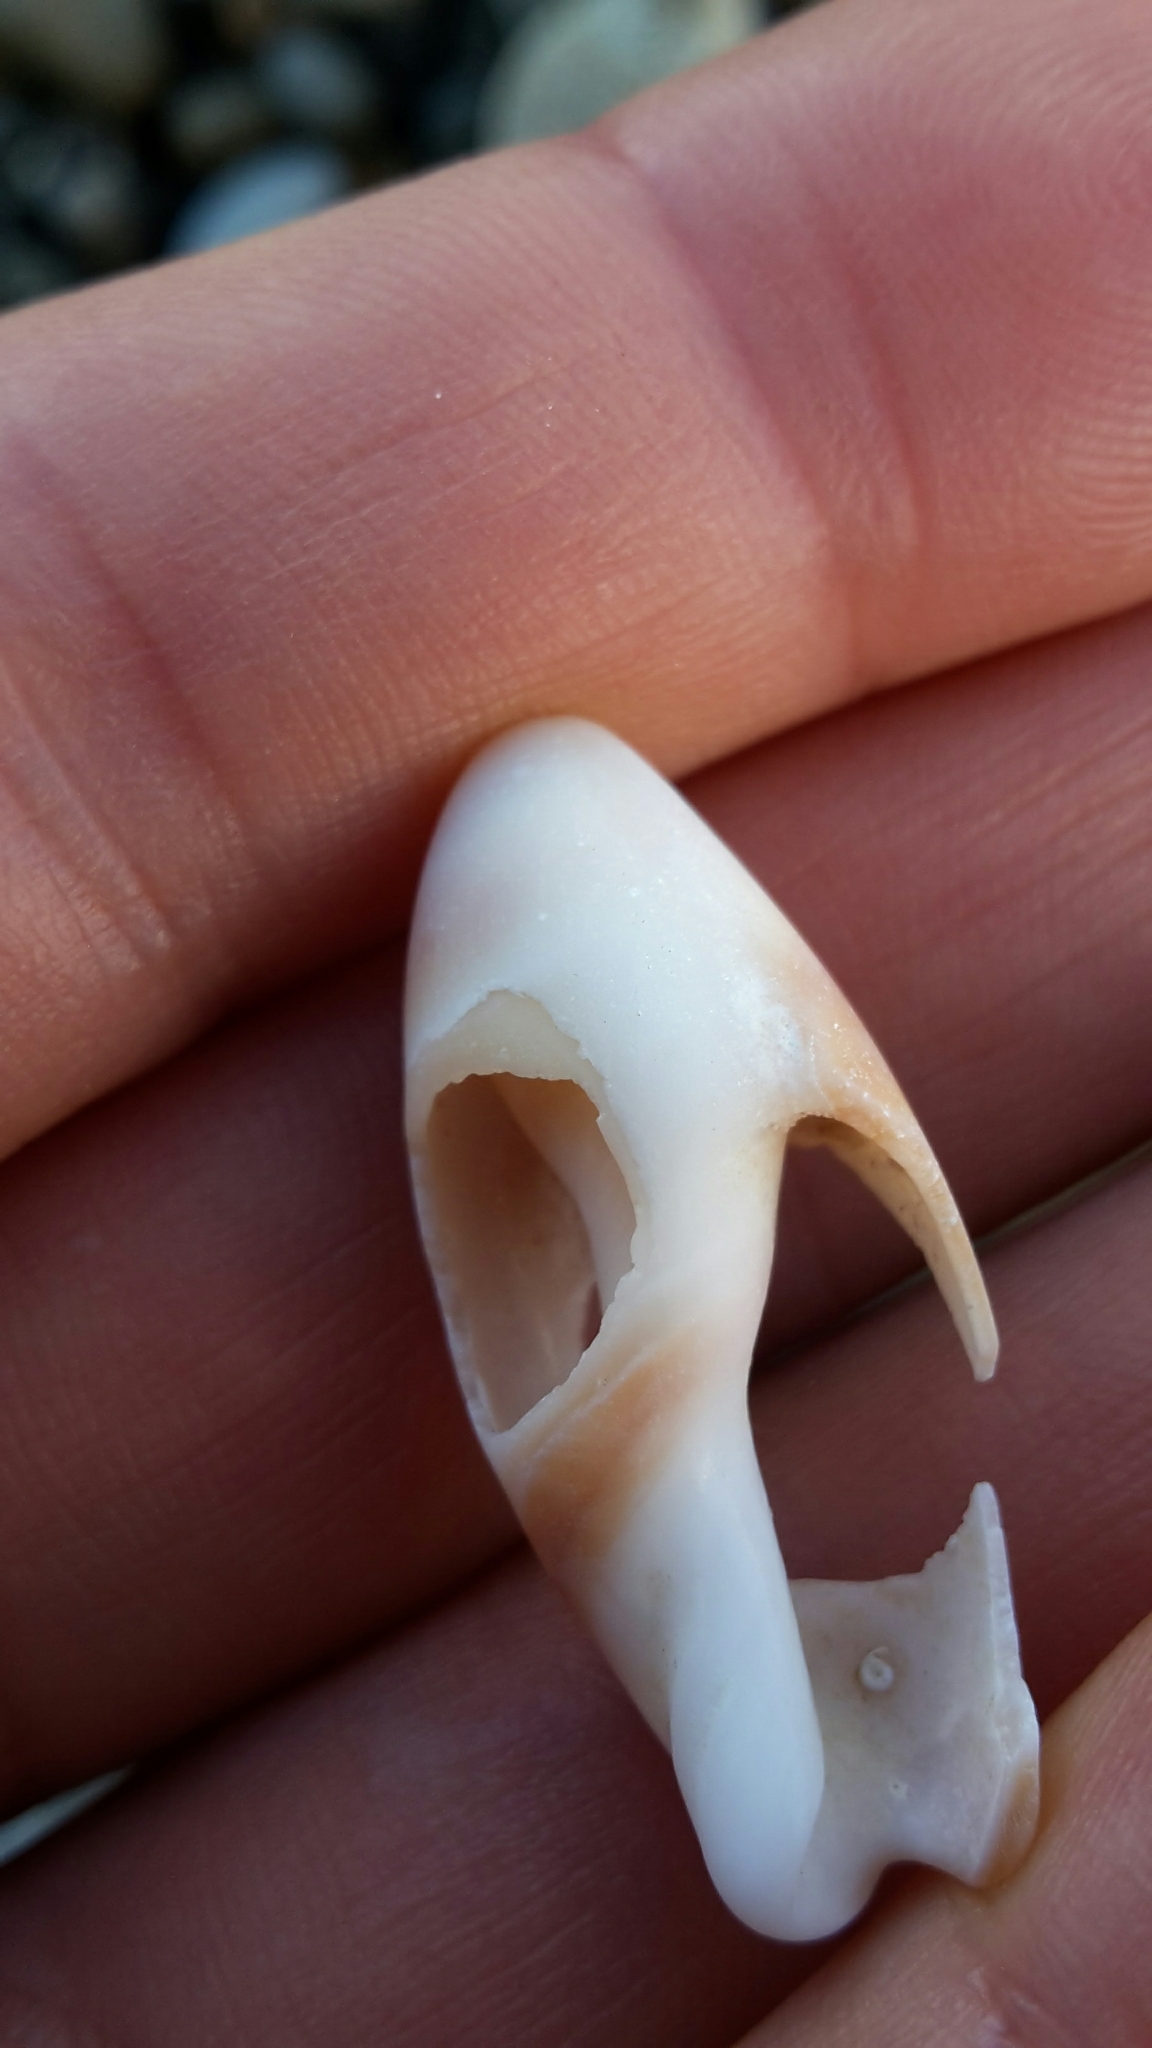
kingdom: Animalia
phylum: Mollusca
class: Gastropoda
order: Neogastropoda
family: Ancillariidae
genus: Amalda
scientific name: Amalda mucronata
